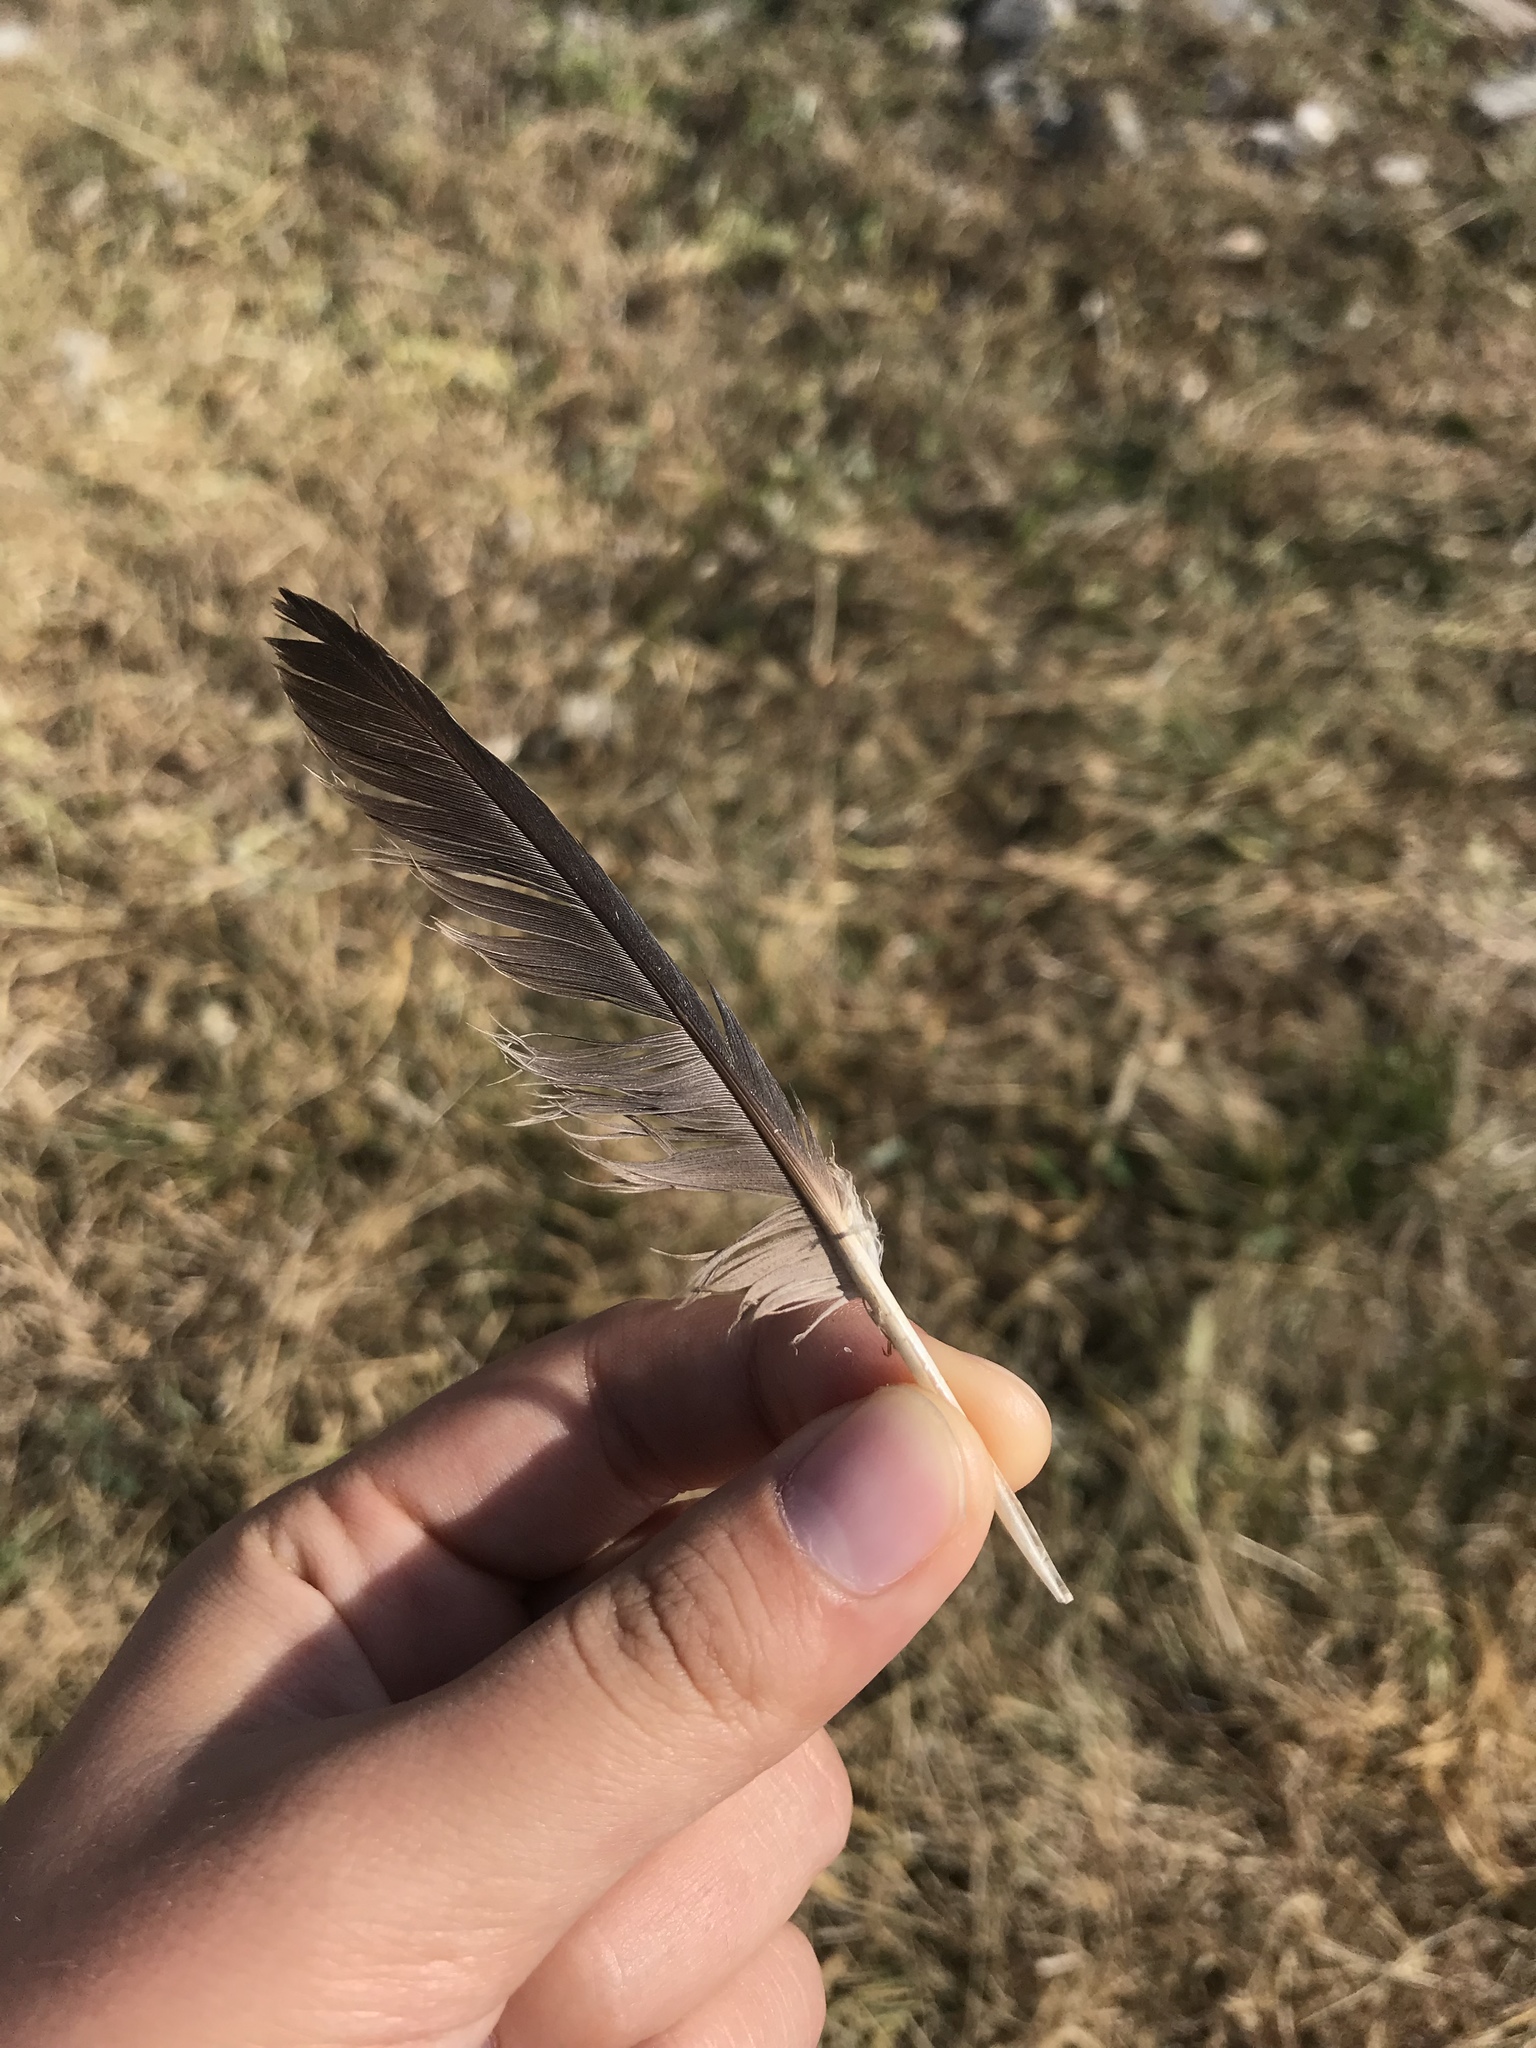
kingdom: Animalia
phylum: Chordata
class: Aves
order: Columbiformes
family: Columbidae
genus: Zenaida
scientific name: Zenaida macroura
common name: Mourning dove
